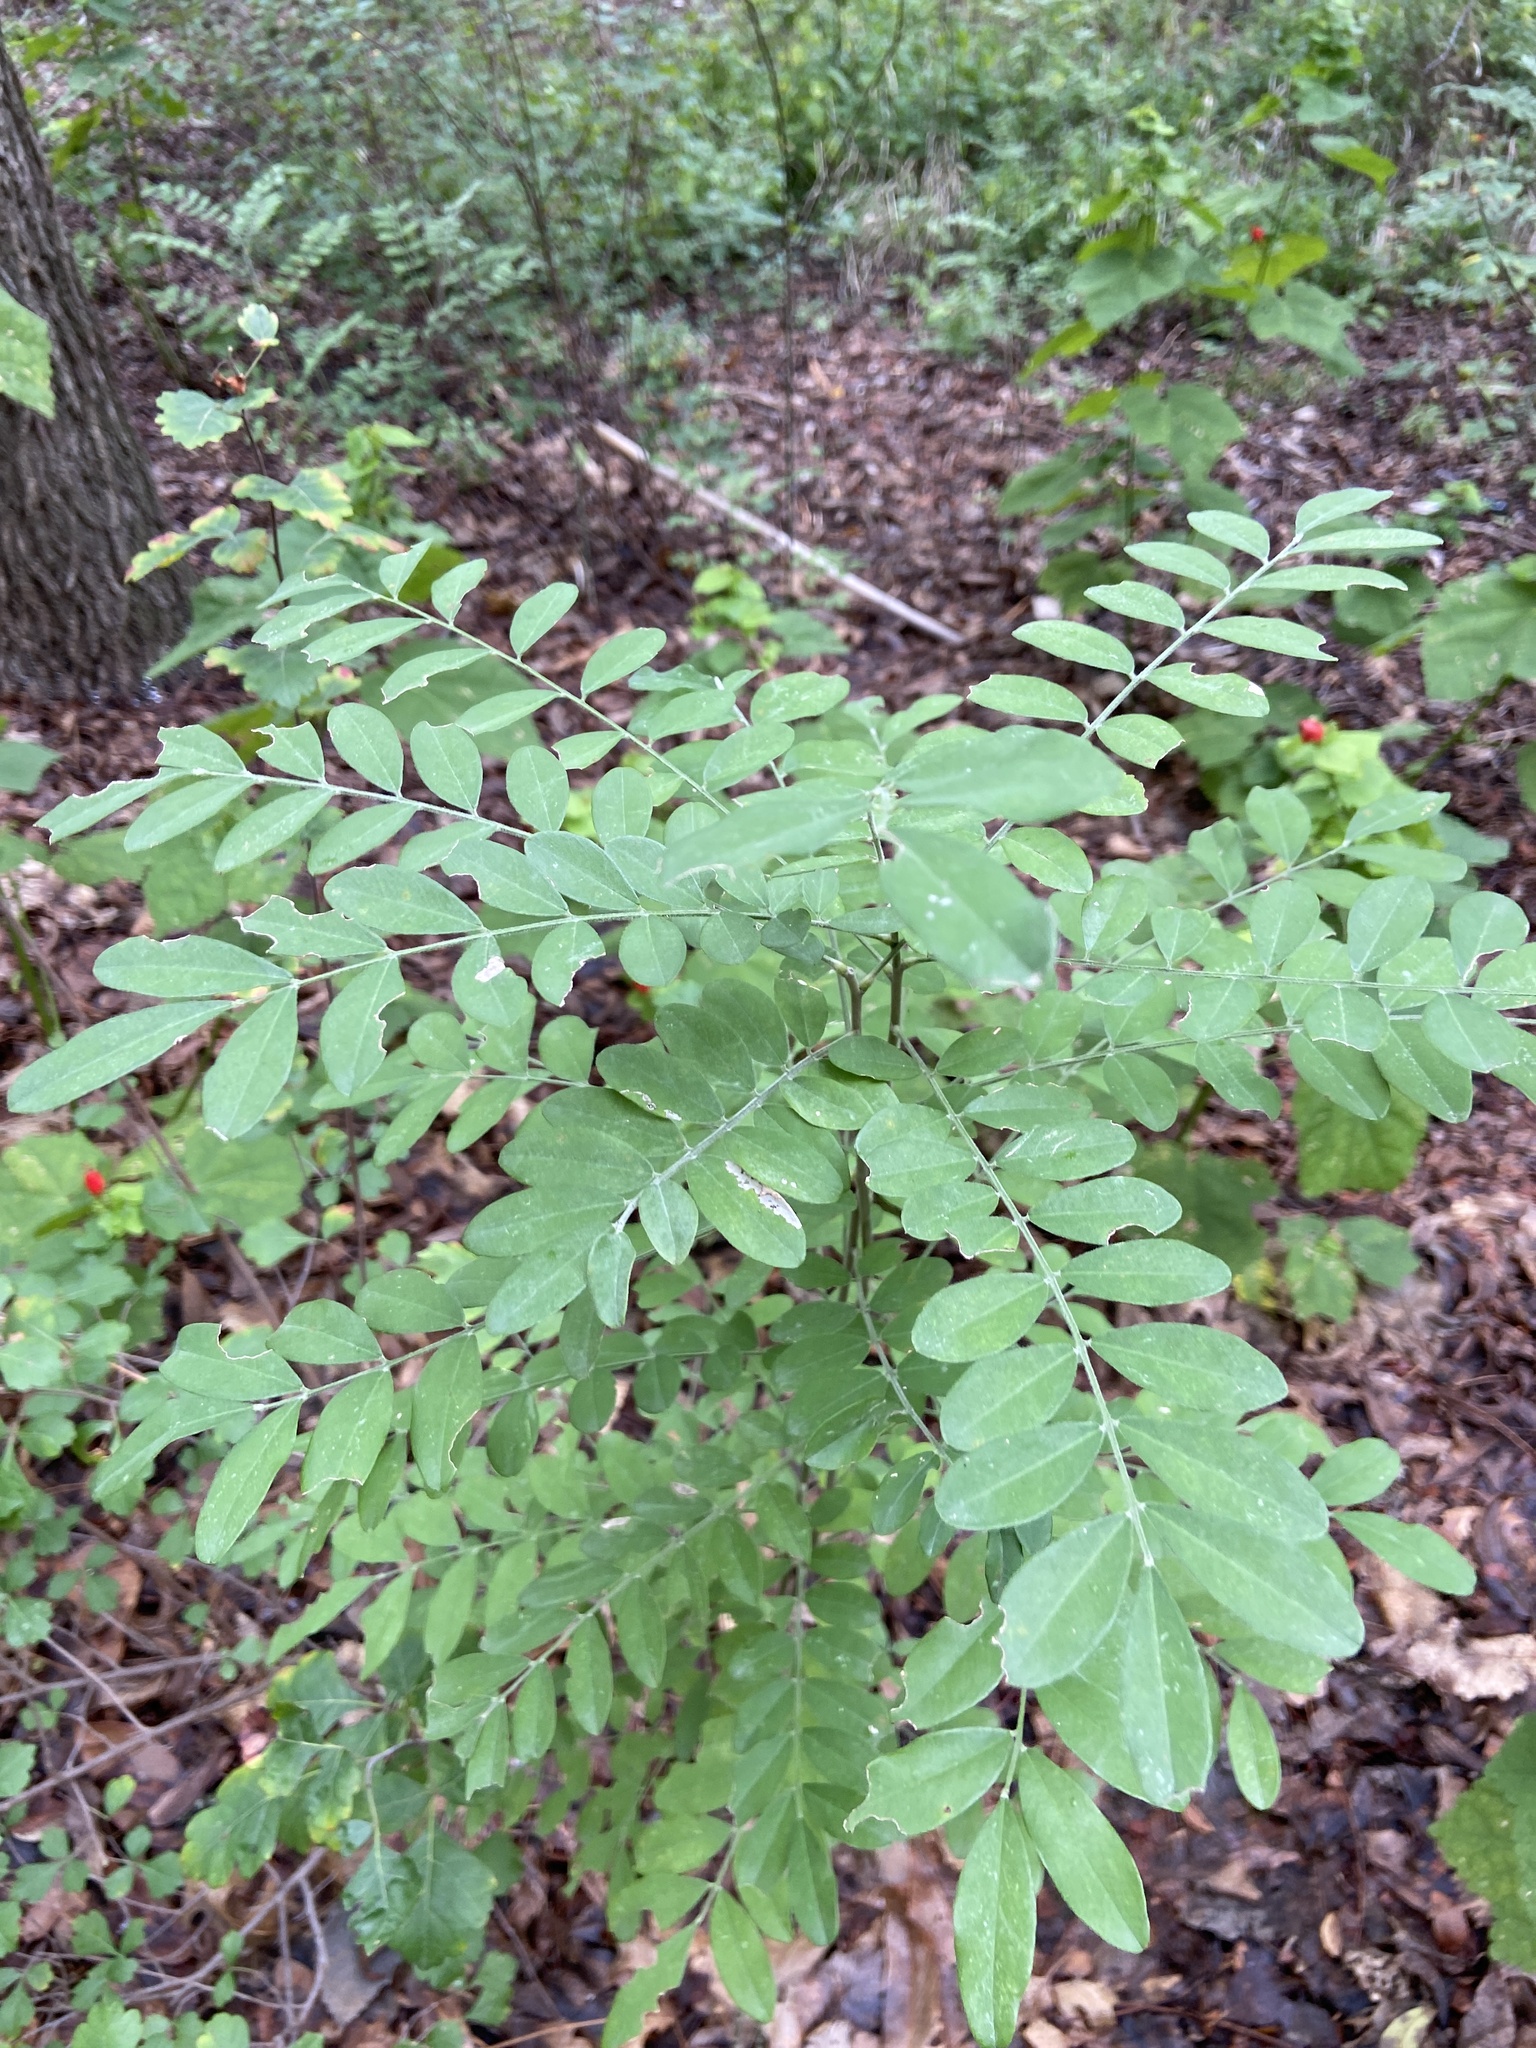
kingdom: Plantae
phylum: Tracheophyta
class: Magnoliopsida
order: Fabales
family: Fabaceae
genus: Styphnolobium
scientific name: Styphnolobium affine
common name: Texas sophora
